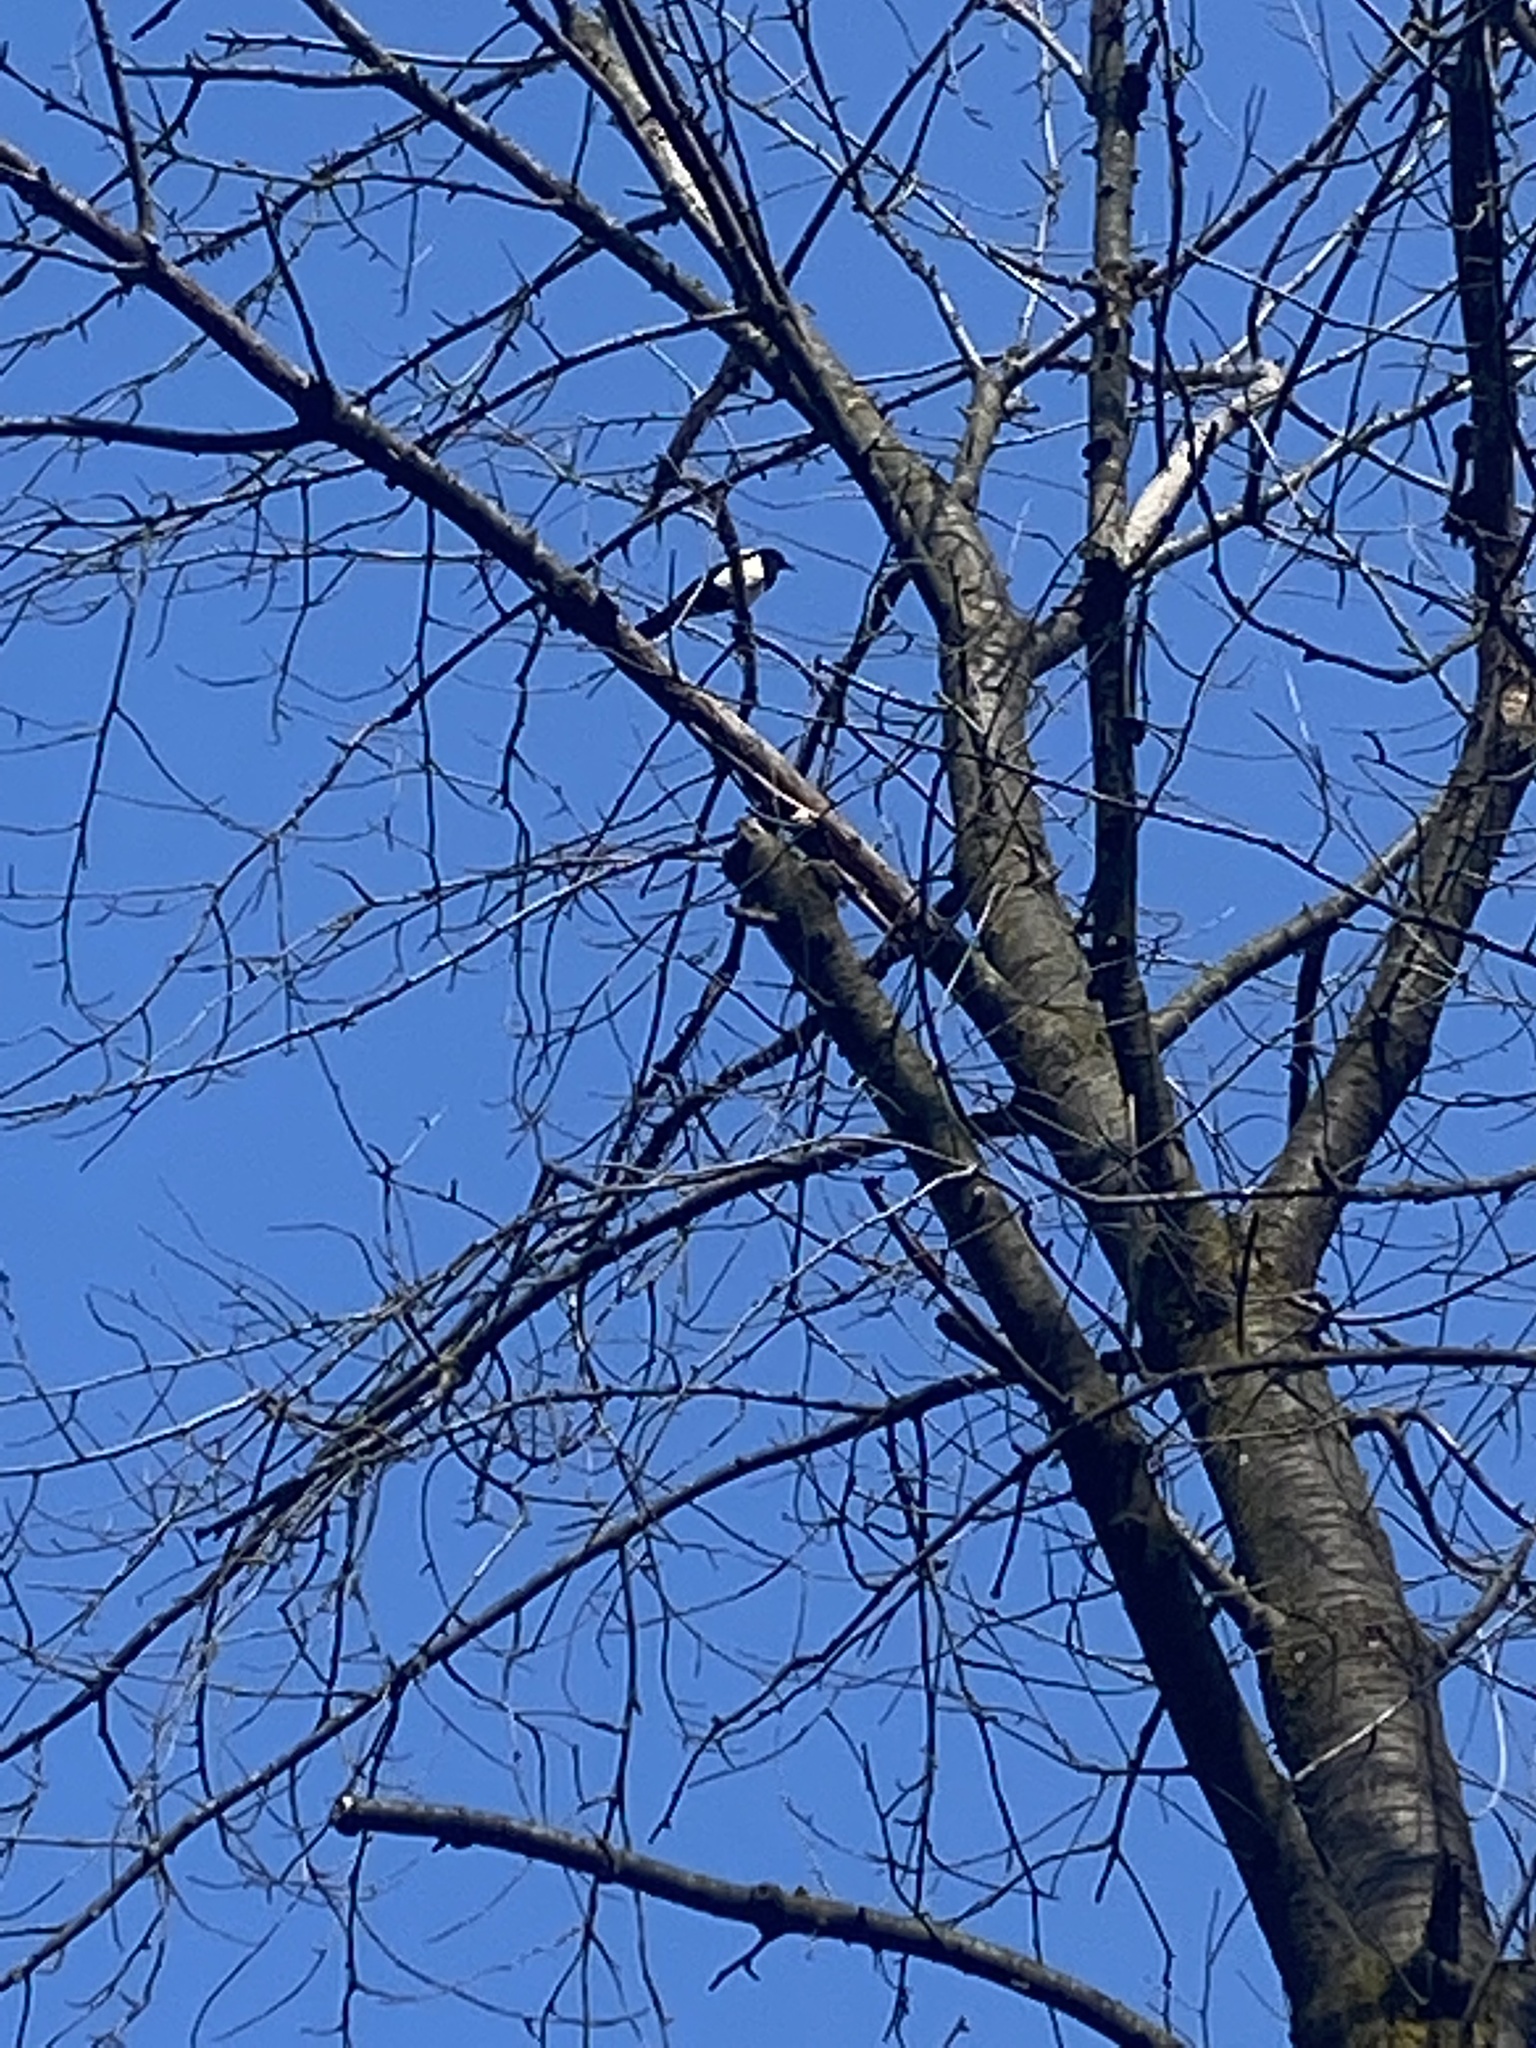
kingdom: Animalia
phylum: Chordata
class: Aves
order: Passeriformes
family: Corvidae
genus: Pica
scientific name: Pica pica
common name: Eurasian magpie
